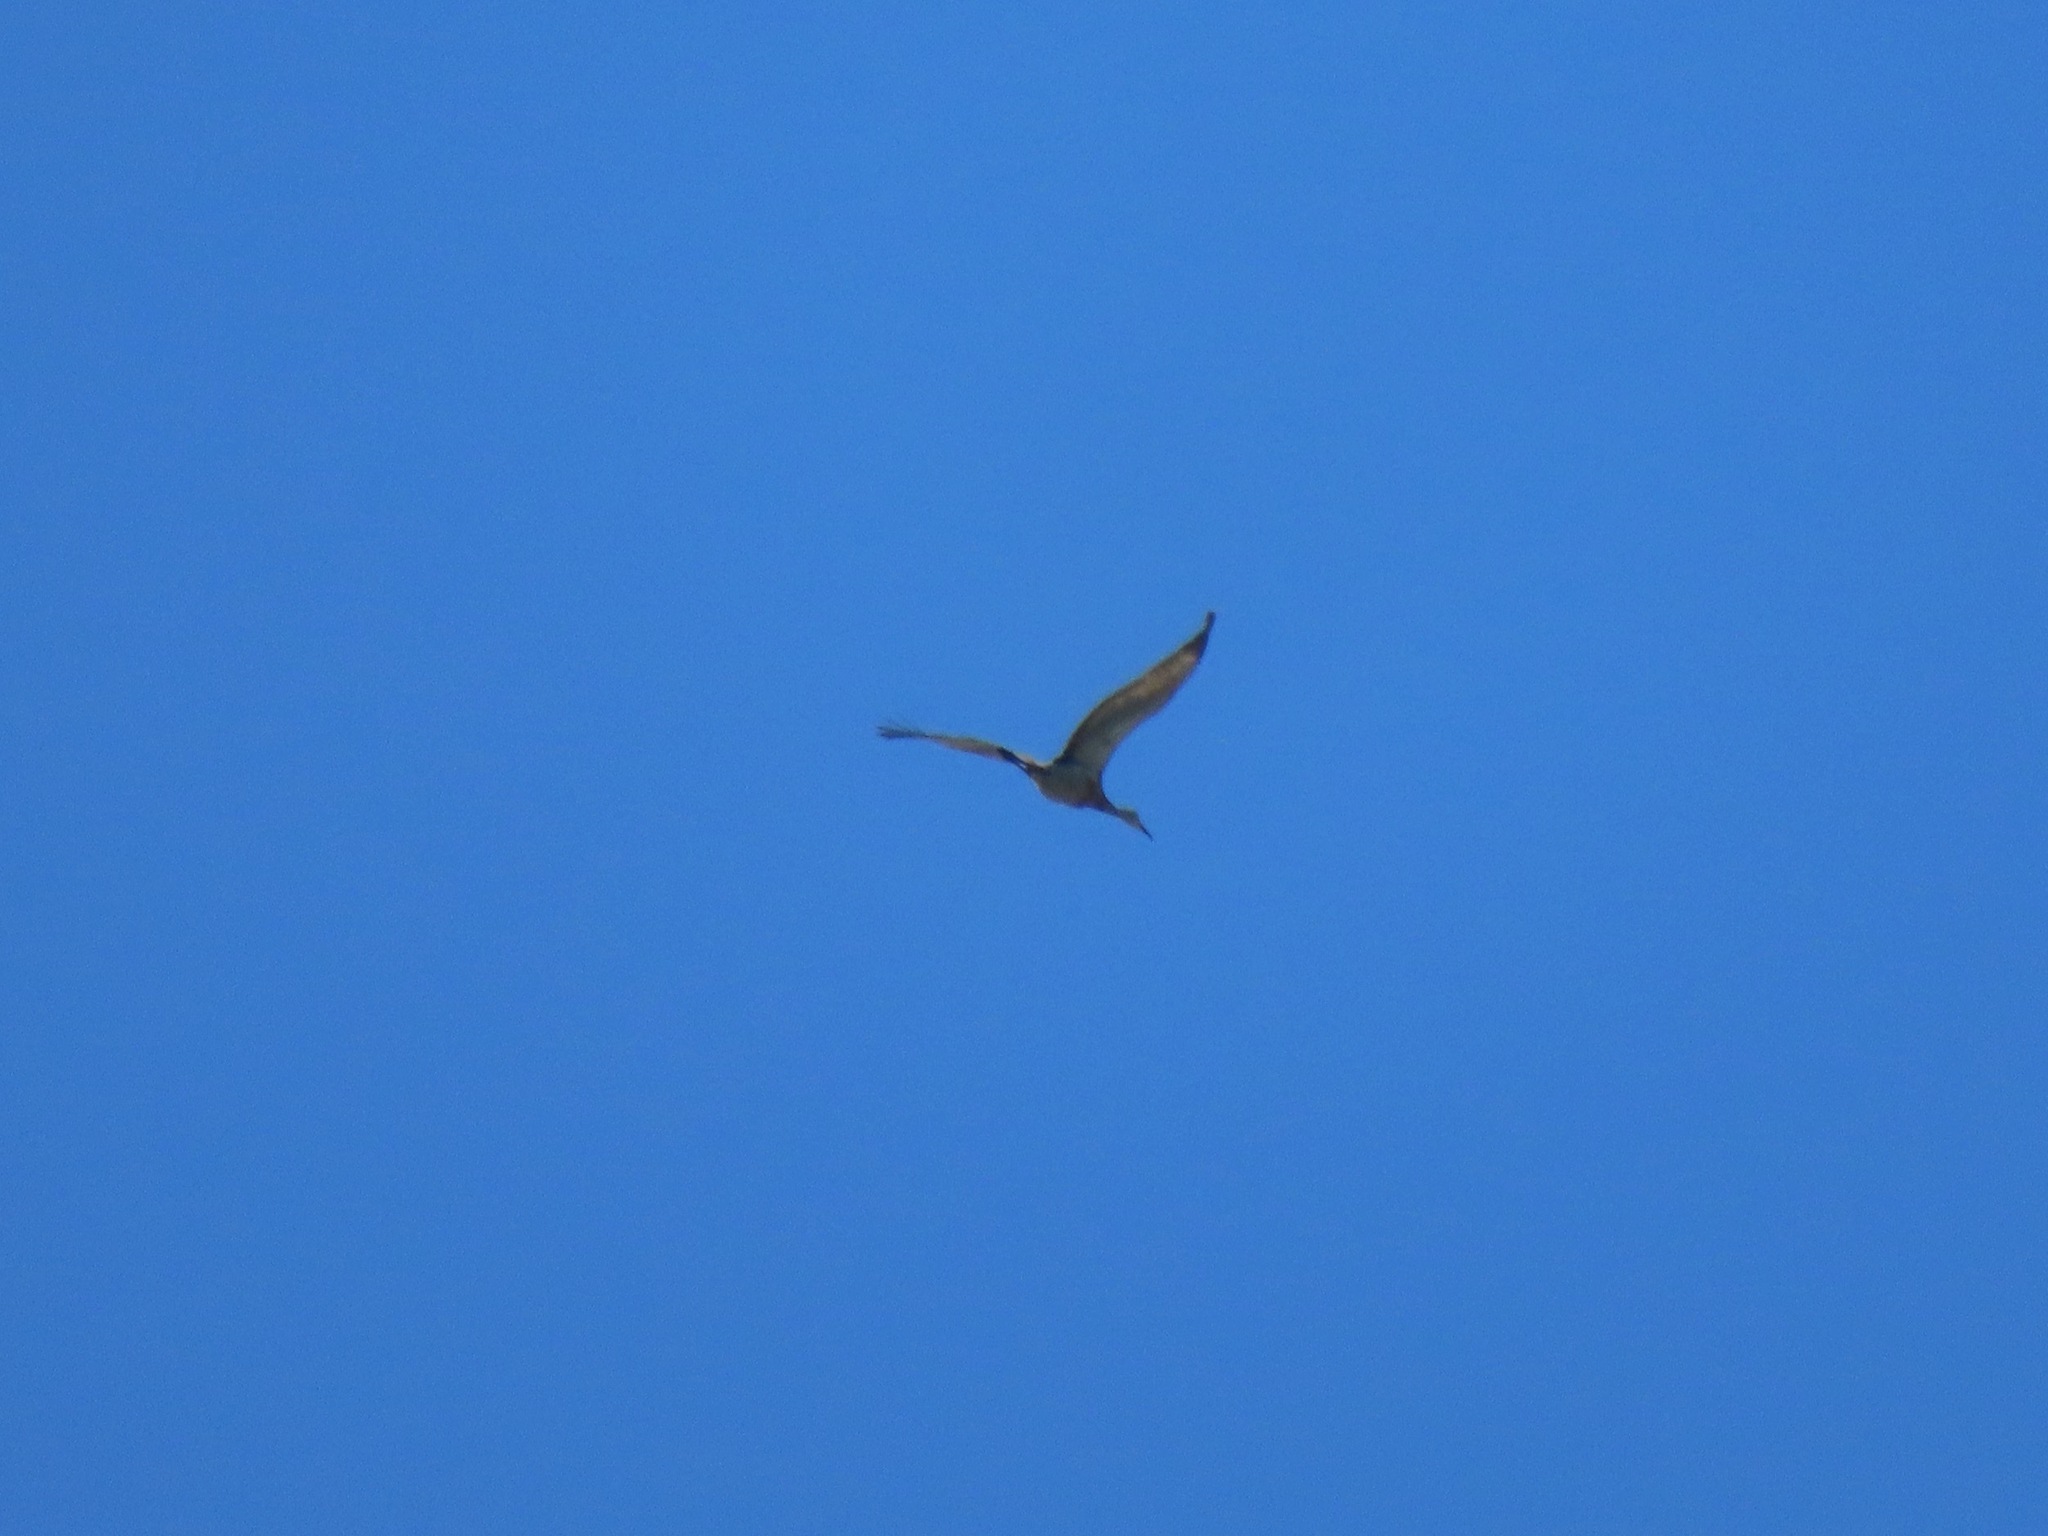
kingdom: Animalia
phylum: Chordata
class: Aves
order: Gruiformes
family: Gruidae
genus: Grus
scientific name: Grus canadensis
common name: Sandhill crane
